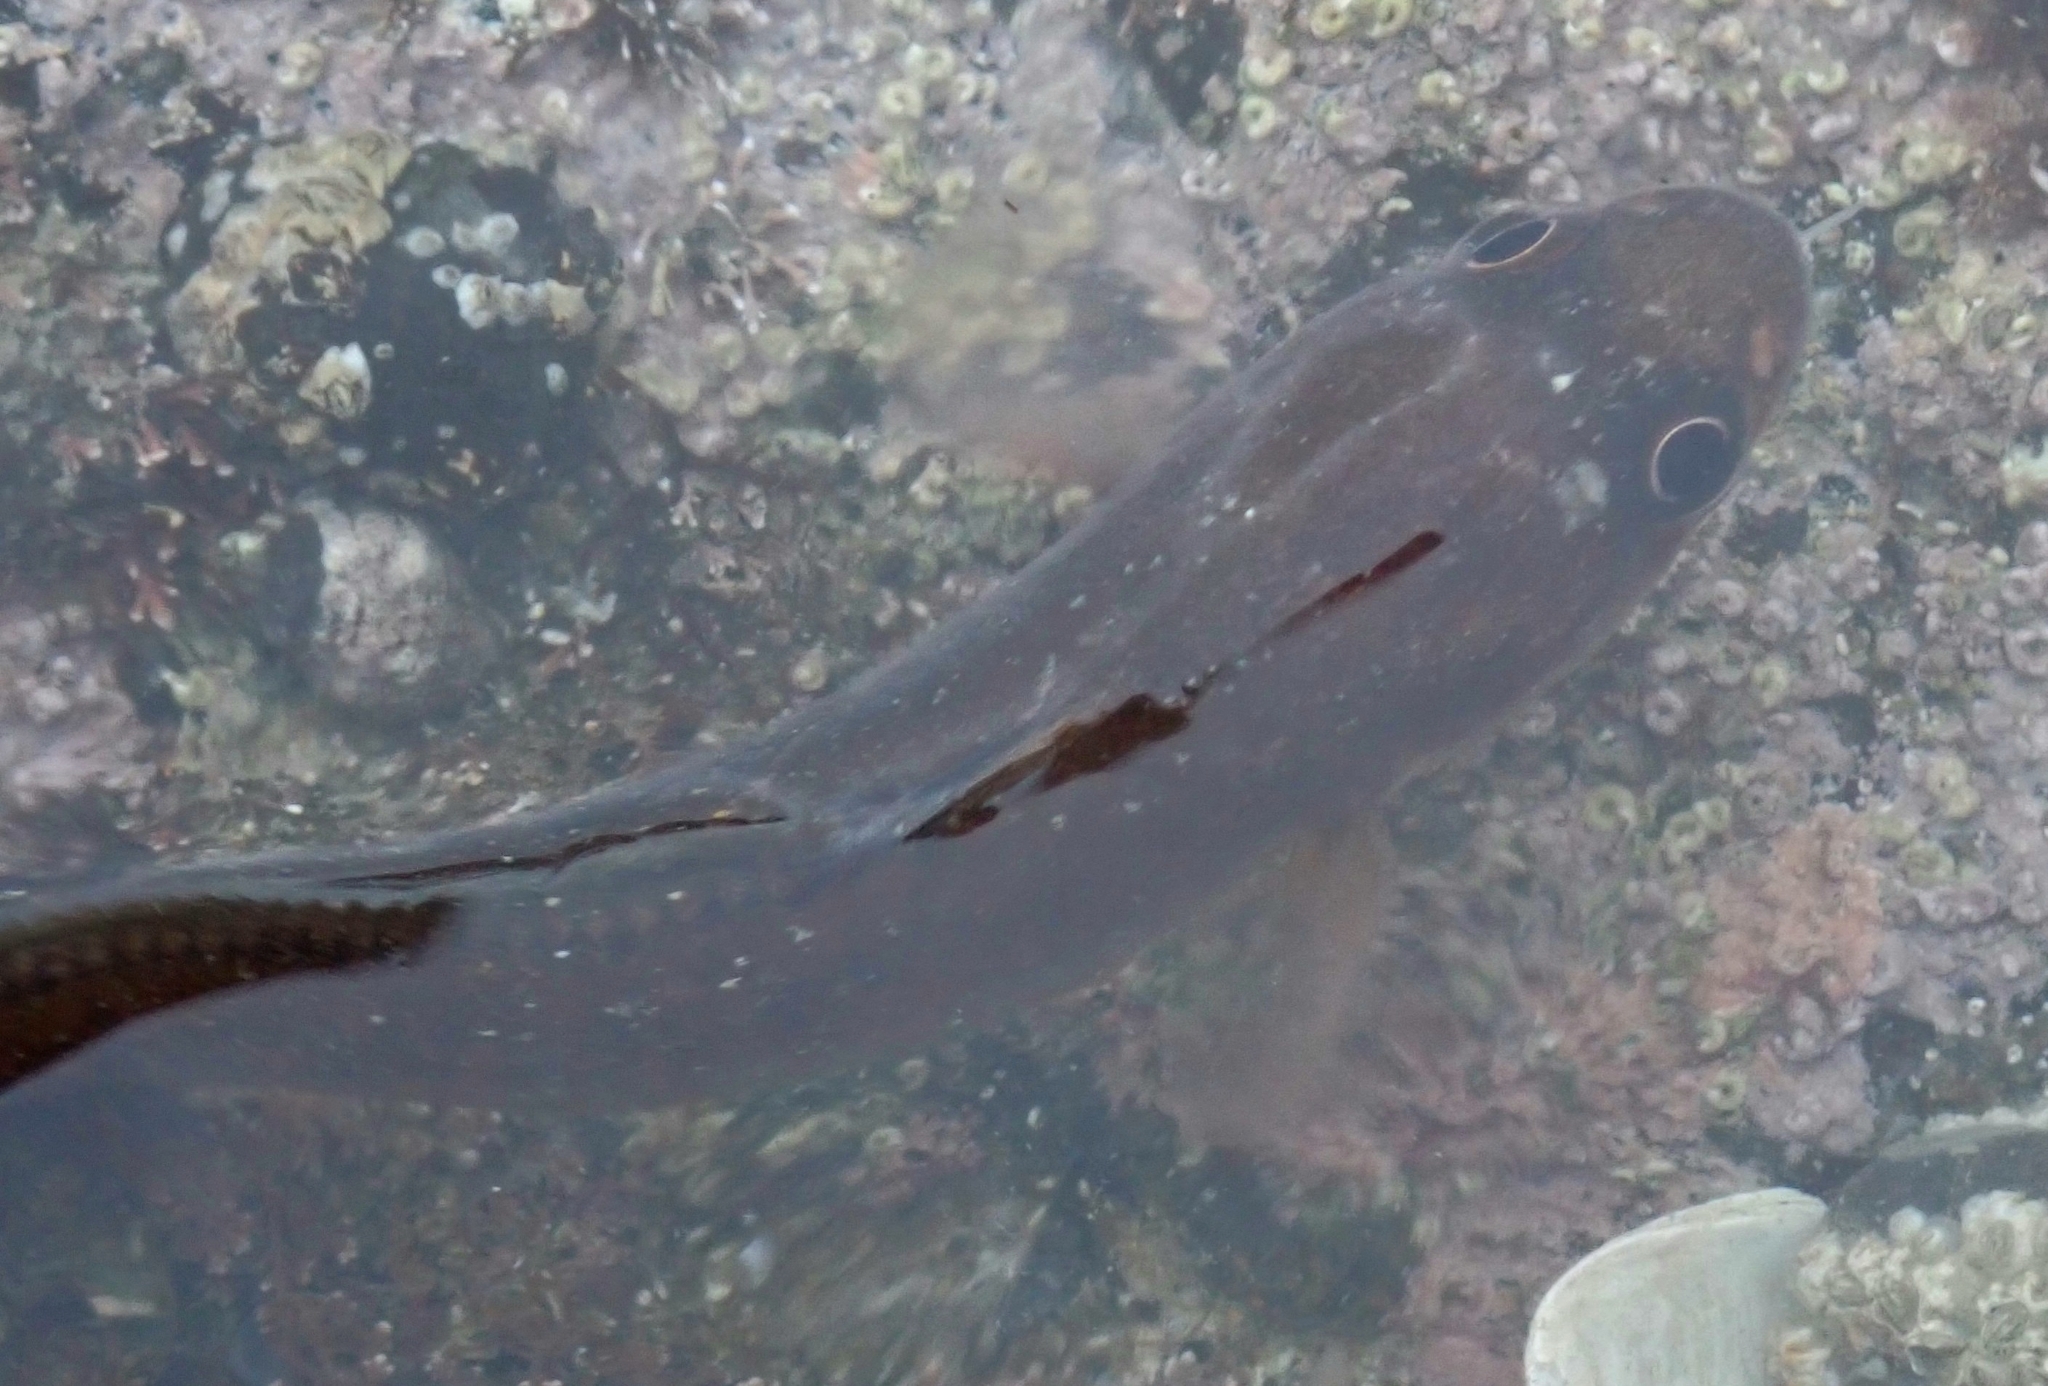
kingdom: Animalia
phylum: Chordata
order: Gadiformes
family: Moridae
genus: Pseudophycis
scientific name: Pseudophycis breviuscula
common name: Northern bastard codling
